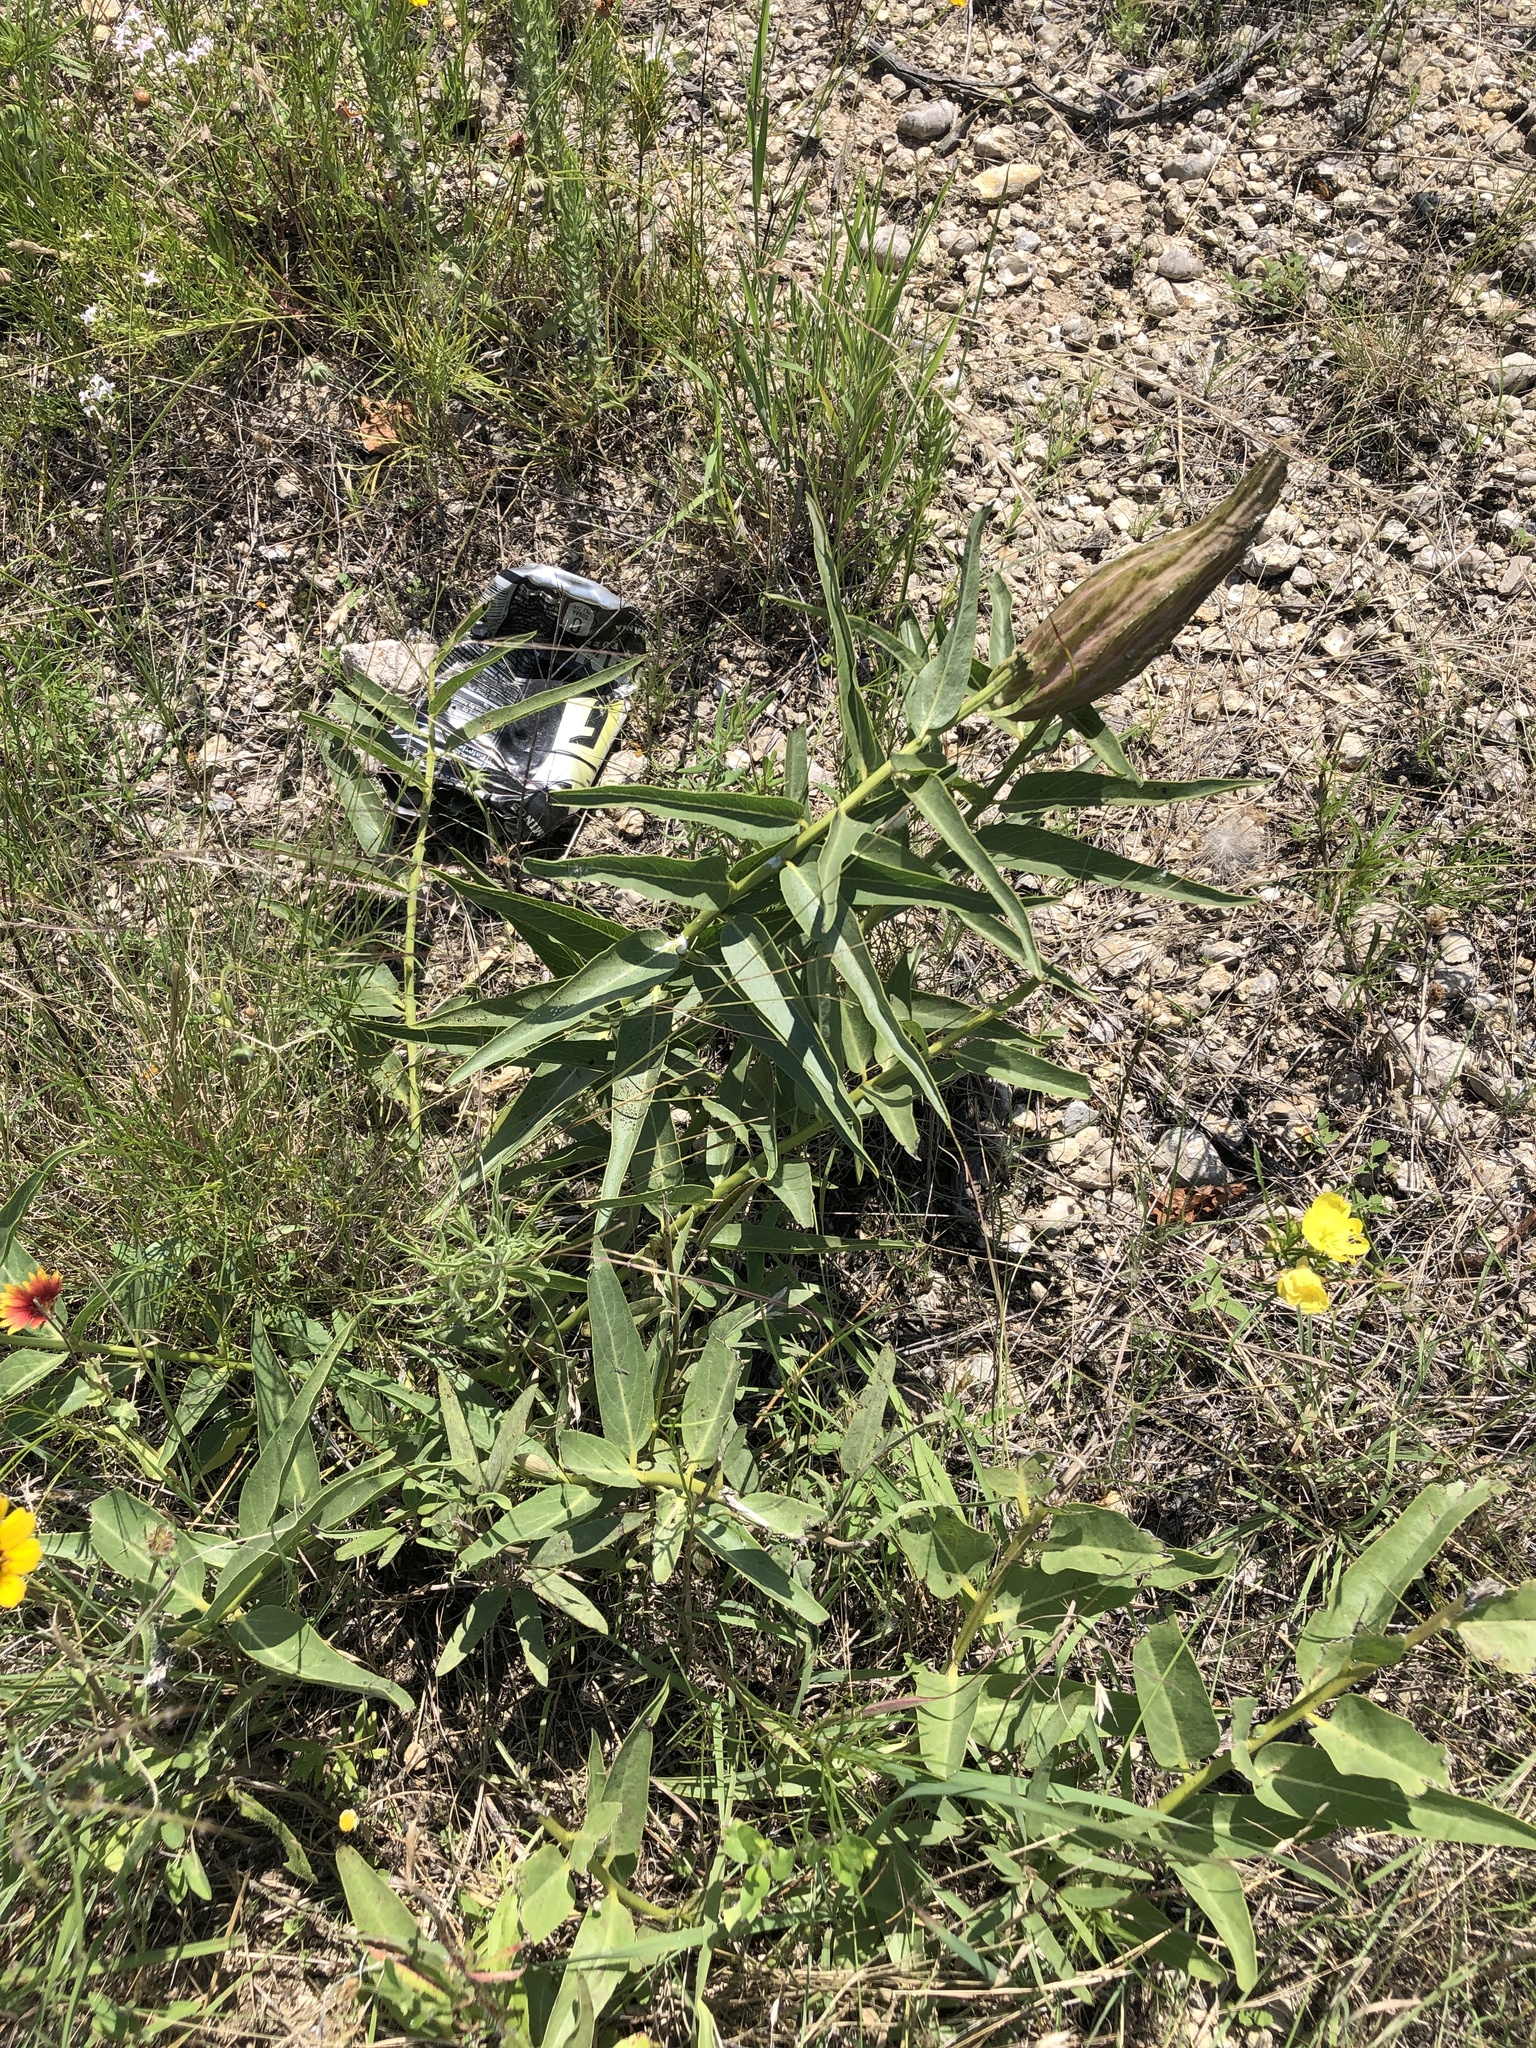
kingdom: Plantae
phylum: Tracheophyta
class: Magnoliopsida
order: Gentianales
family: Apocynaceae
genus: Asclepias
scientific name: Asclepias asperula
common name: Antelope horns
